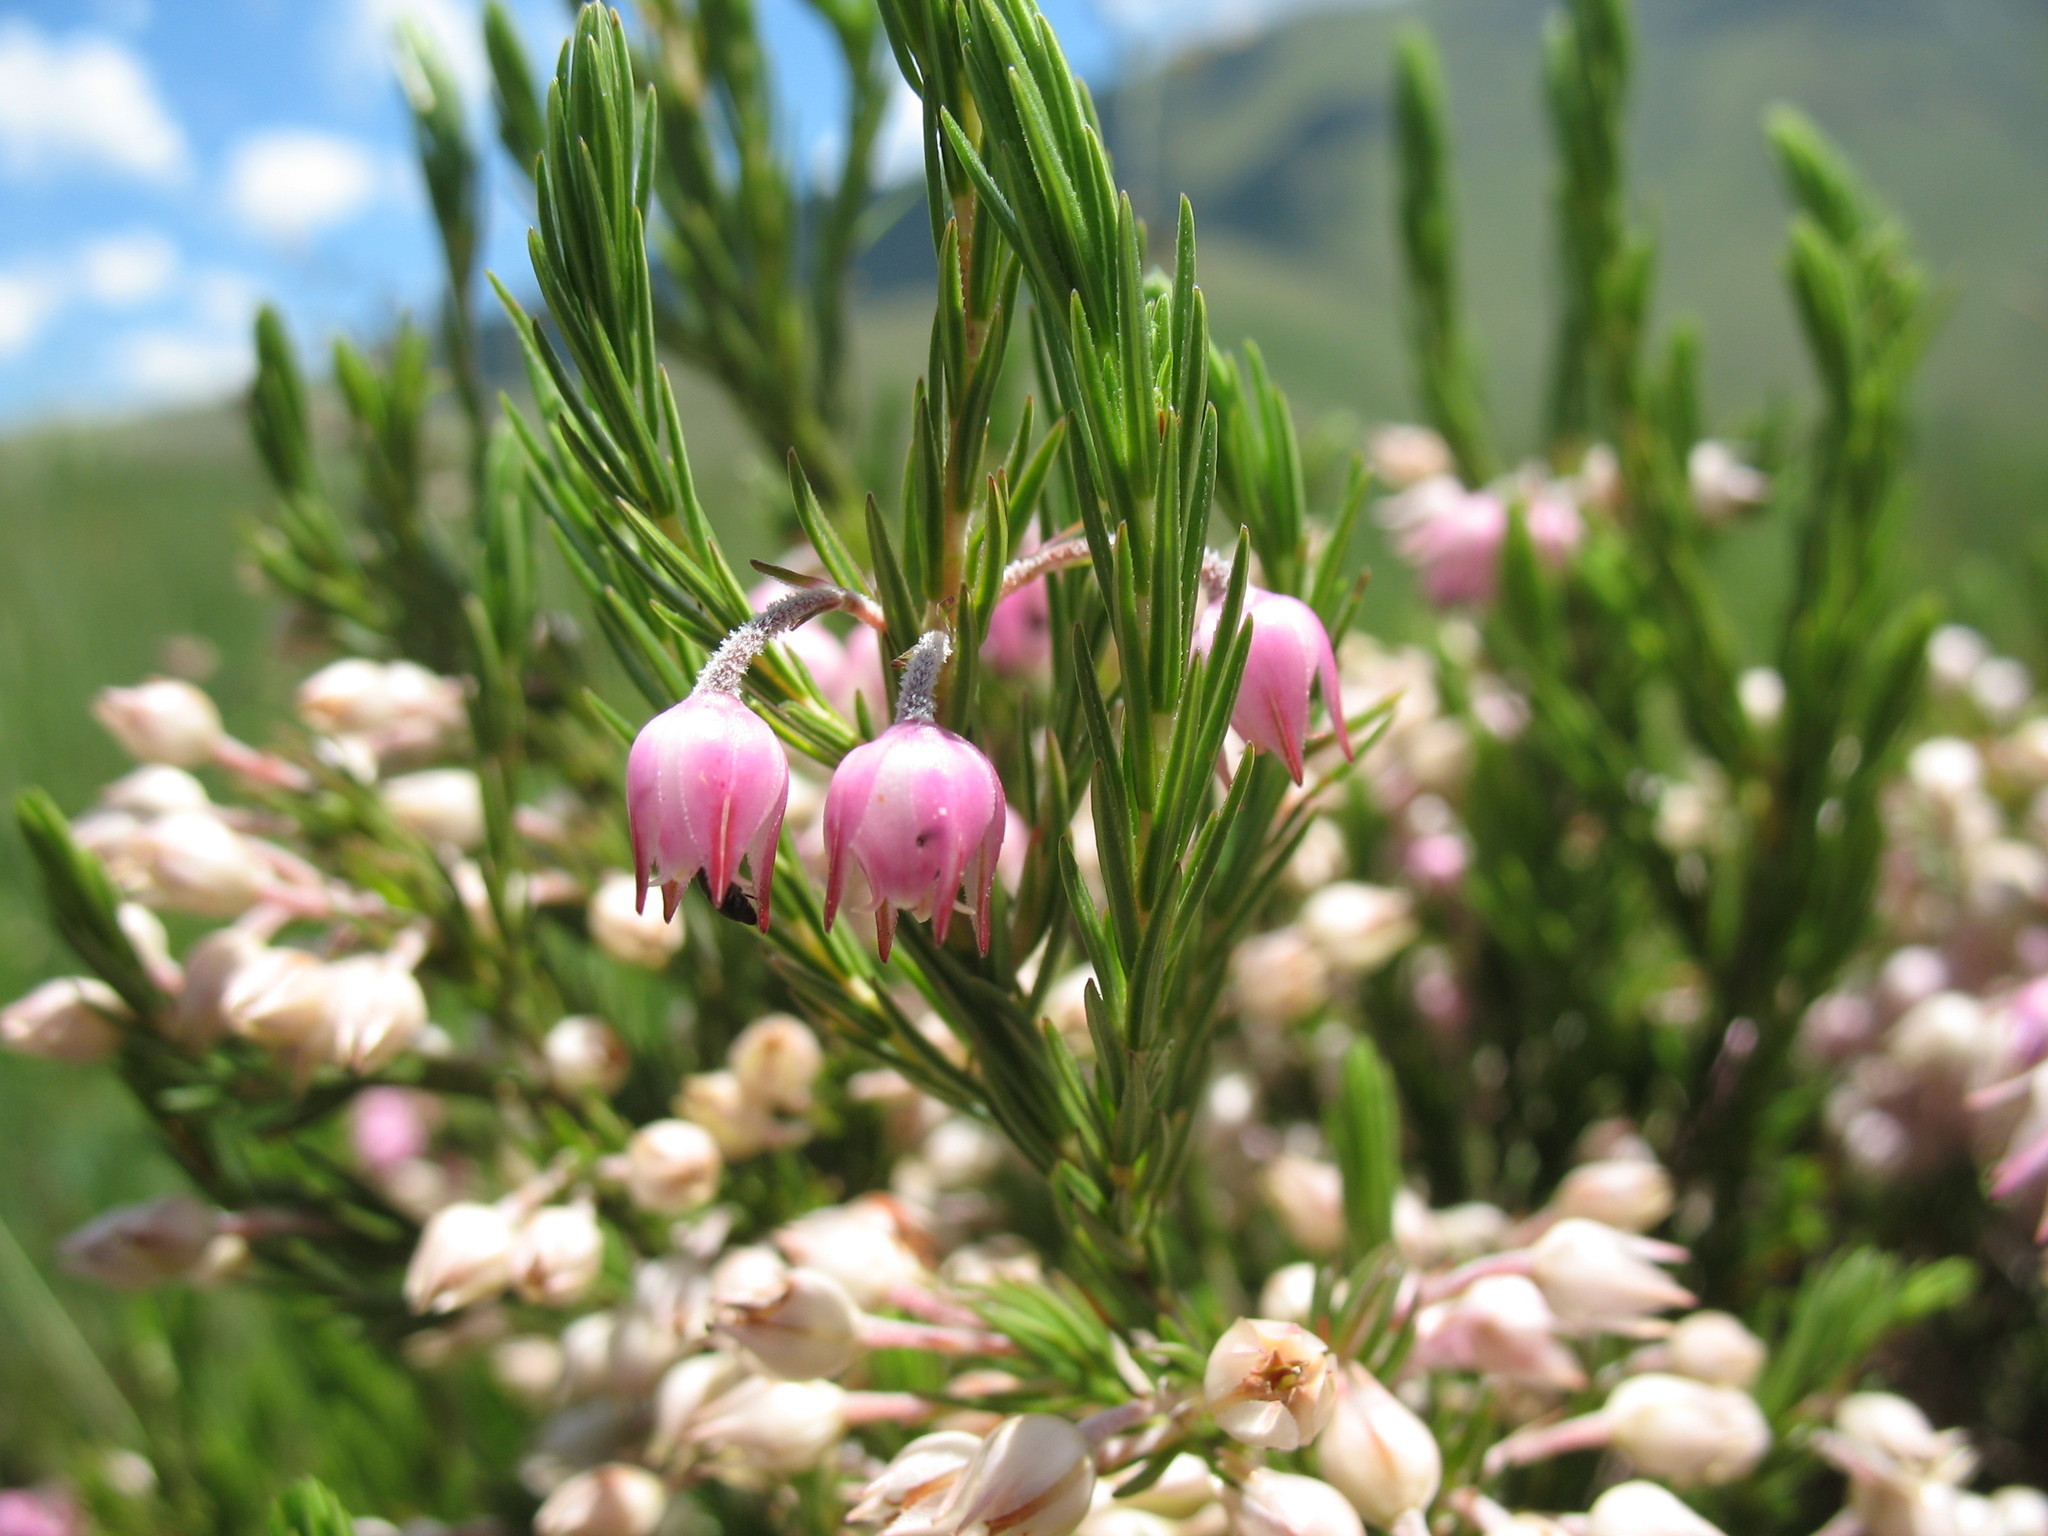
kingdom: Plantae
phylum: Tracheophyta
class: Magnoliopsida
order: Ericales
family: Ericaceae
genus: Erica
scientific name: Erica straussiana
